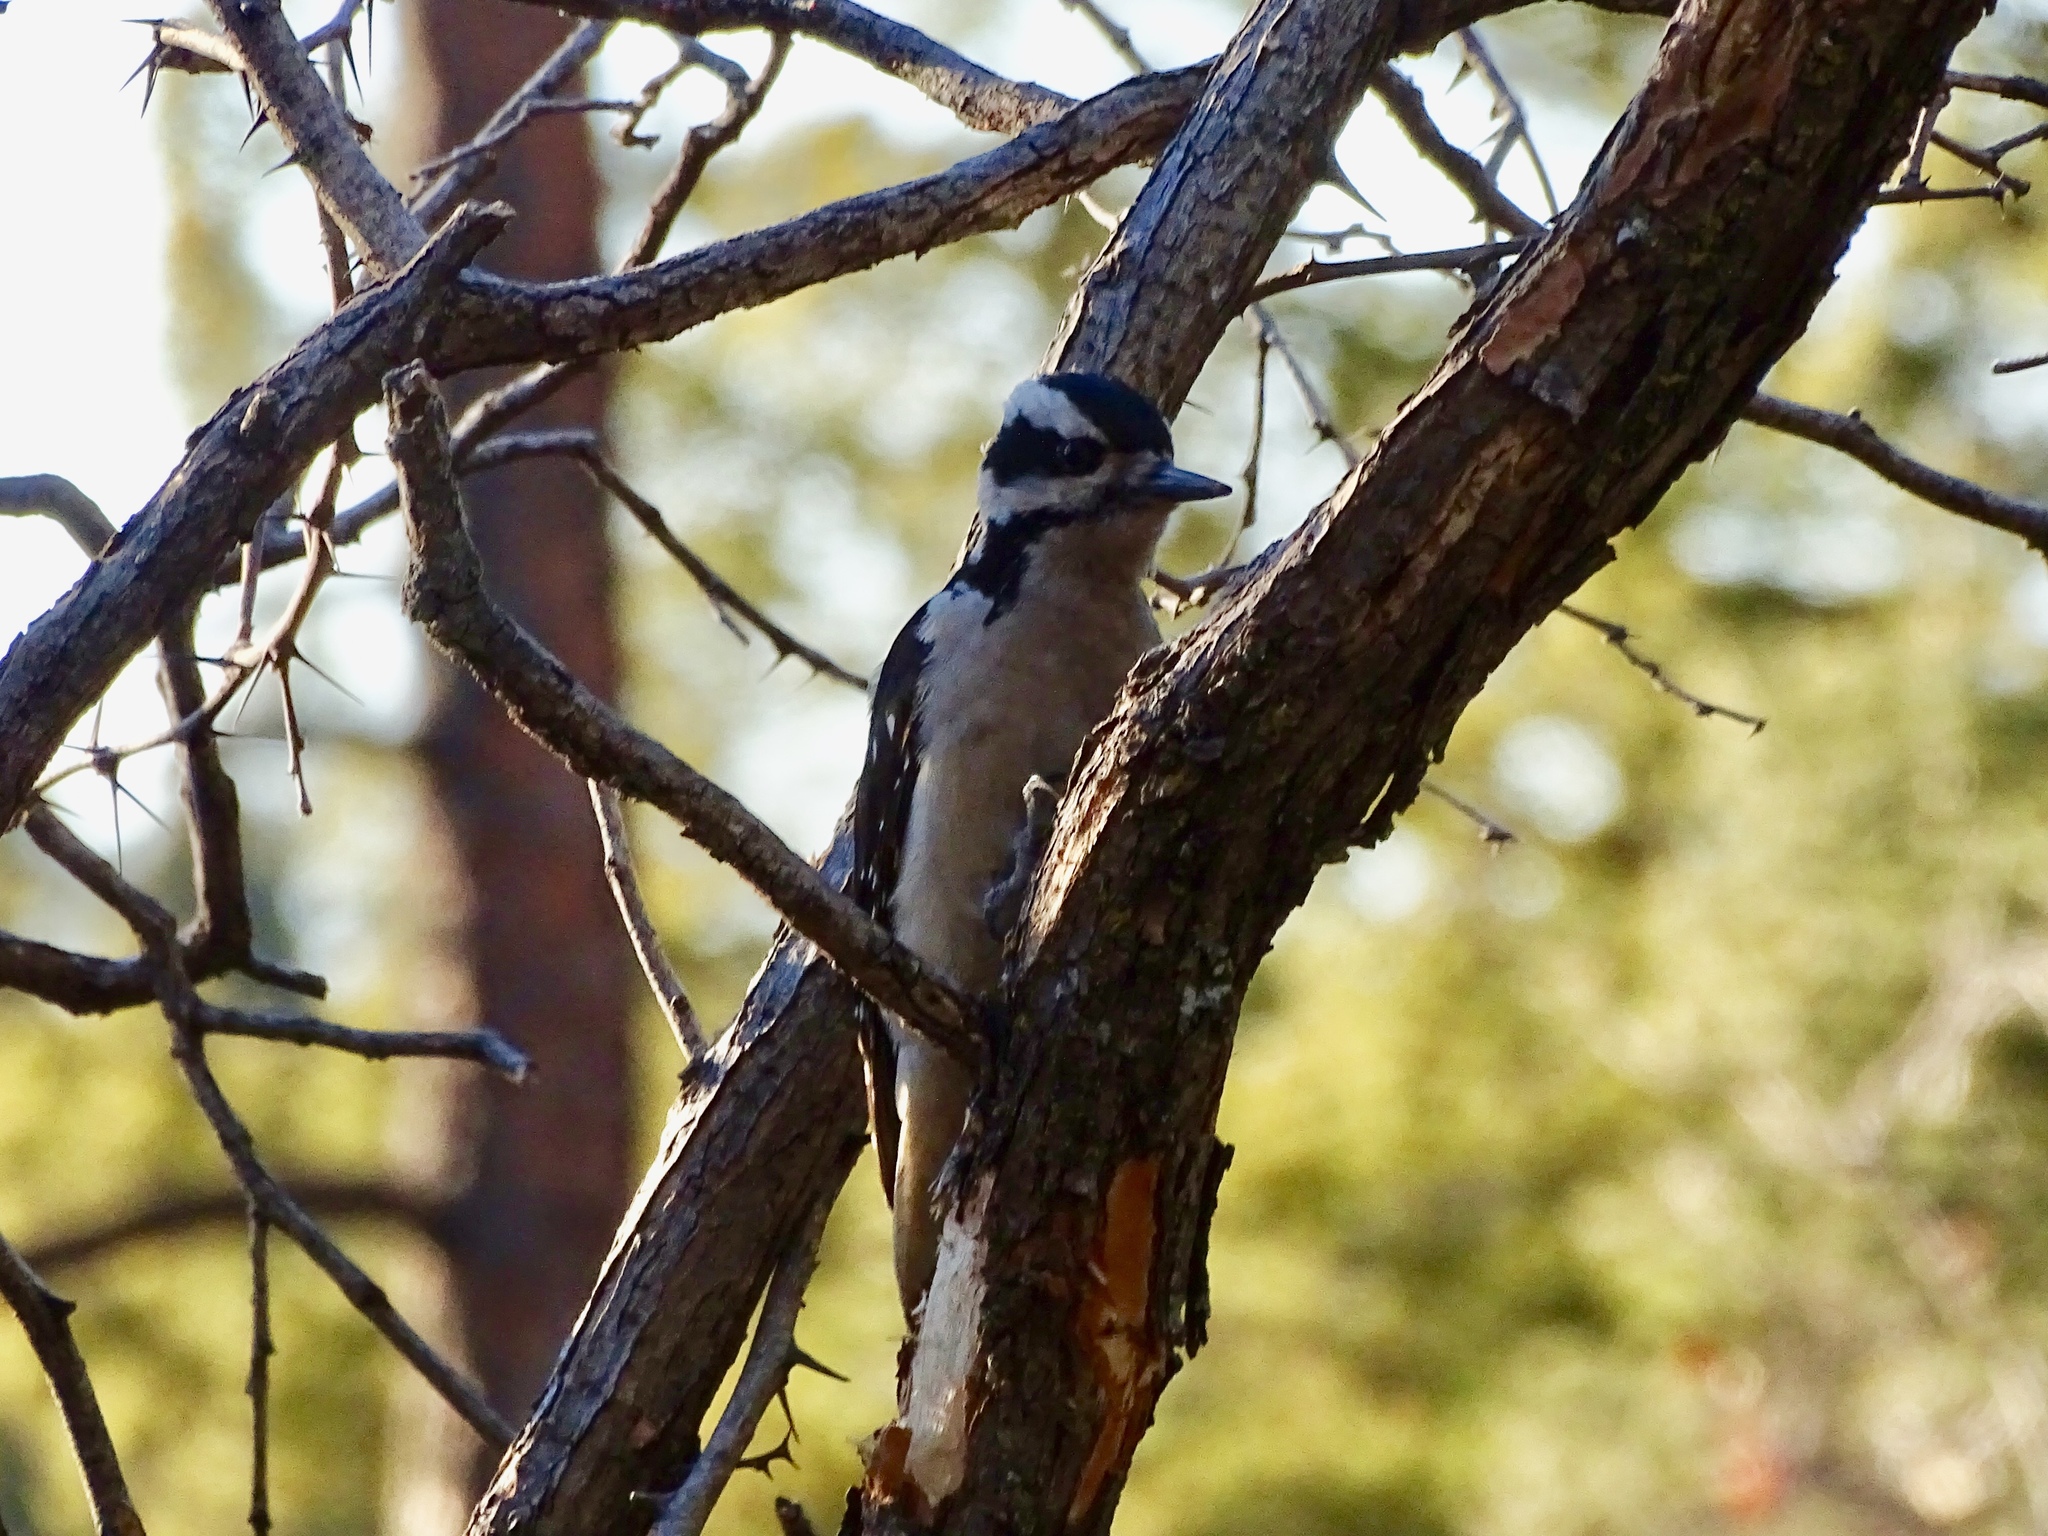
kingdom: Animalia
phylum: Chordata
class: Aves
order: Piciformes
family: Picidae
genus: Leuconotopicus
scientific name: Leuconotopicus villosus
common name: Hairy woodpecker
